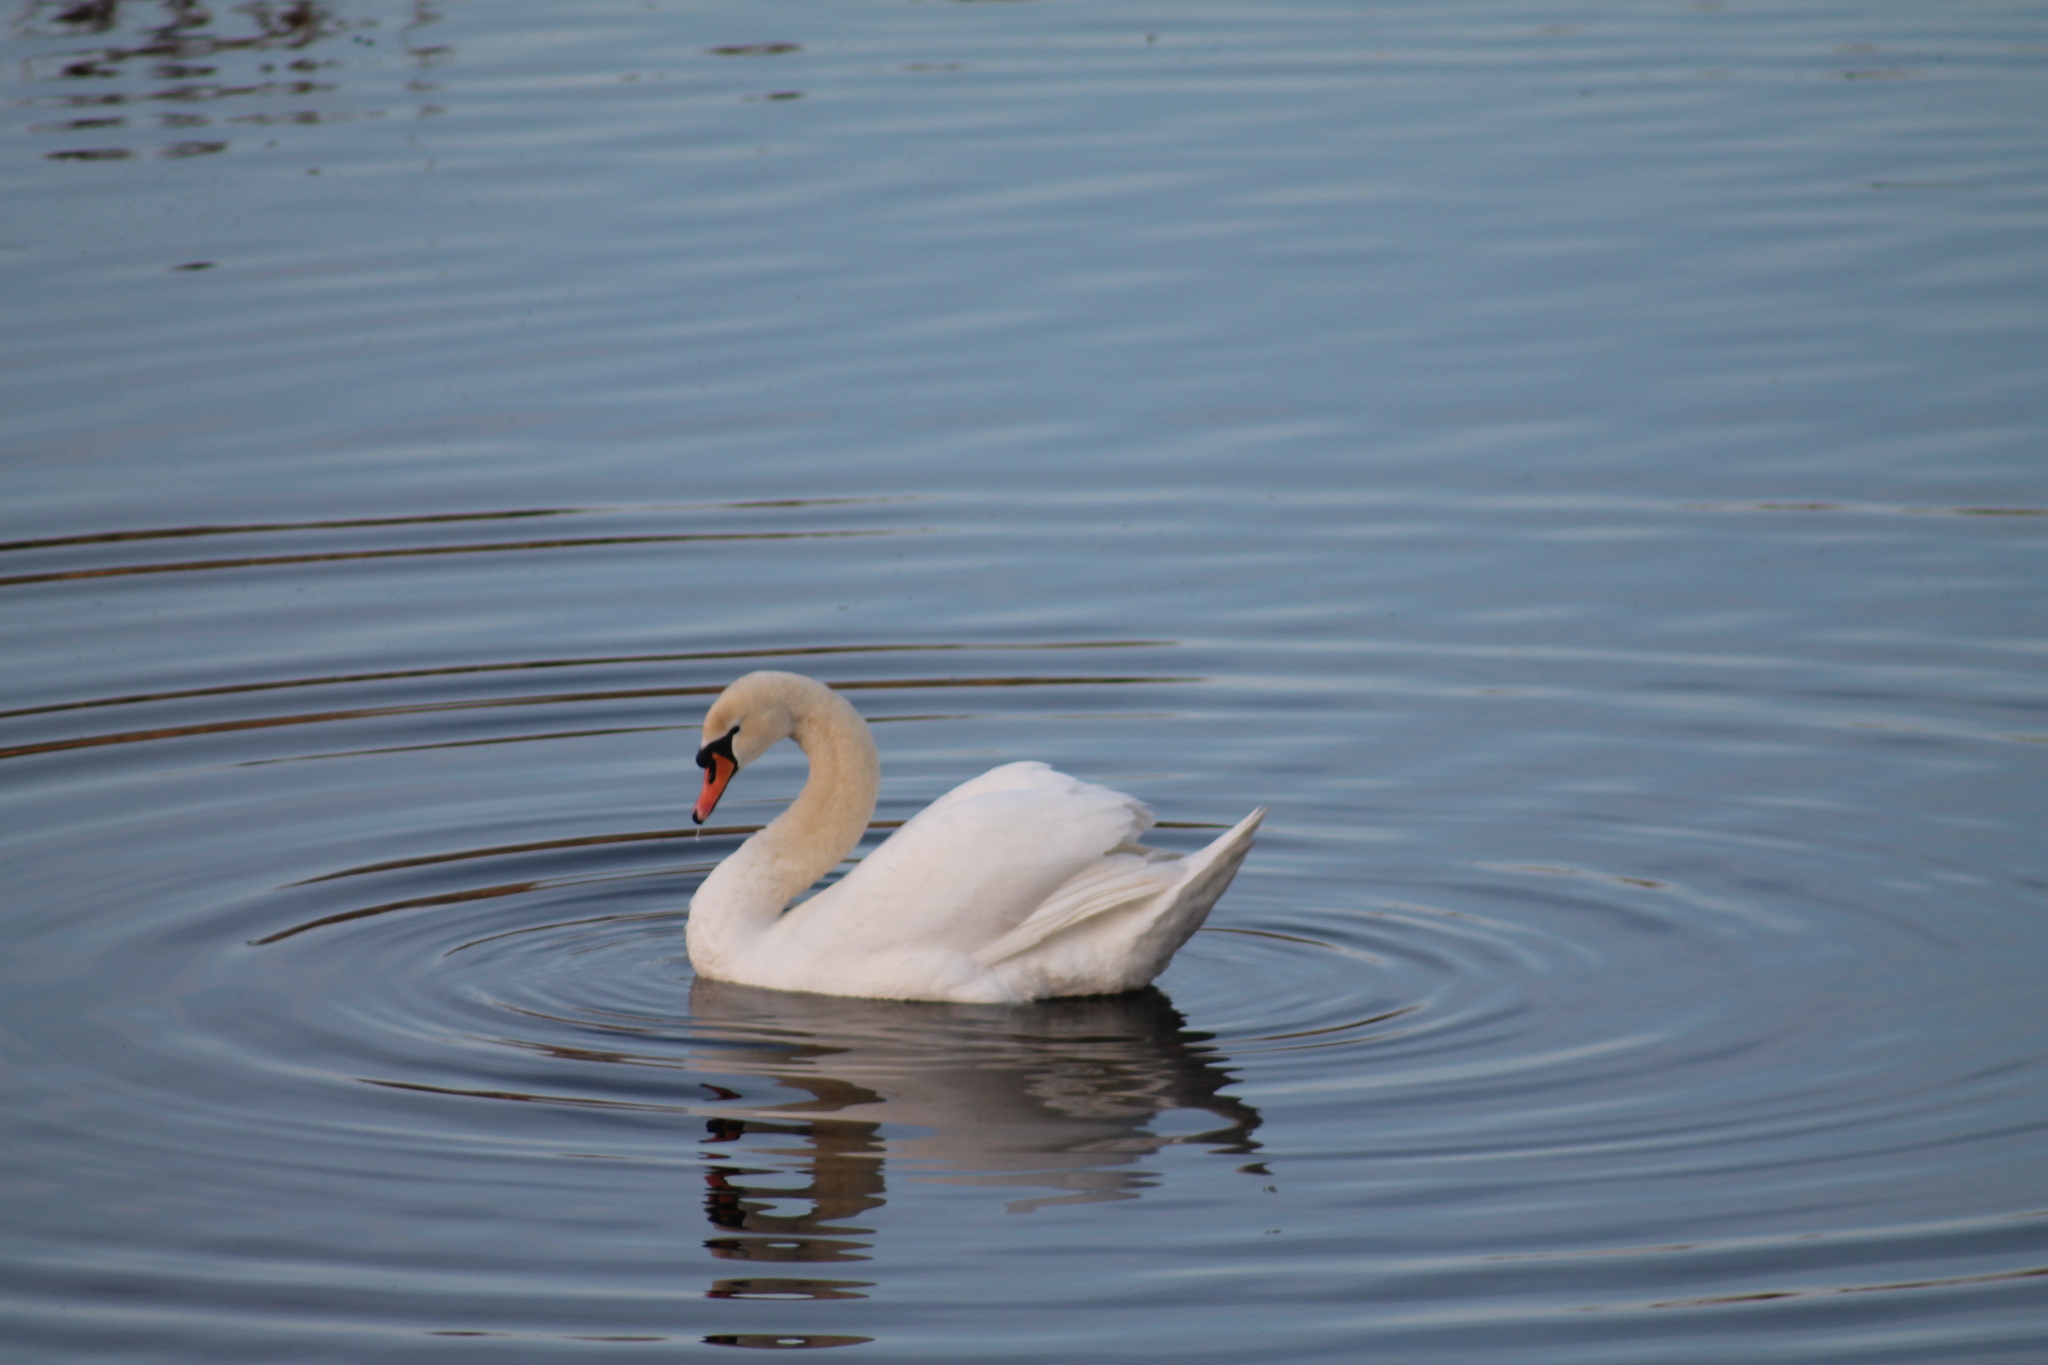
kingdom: Animalia
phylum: Chordata
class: Aves
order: Anseriformes
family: Anatidae
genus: Cygnus
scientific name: Cygnus olor
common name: Mute swan
